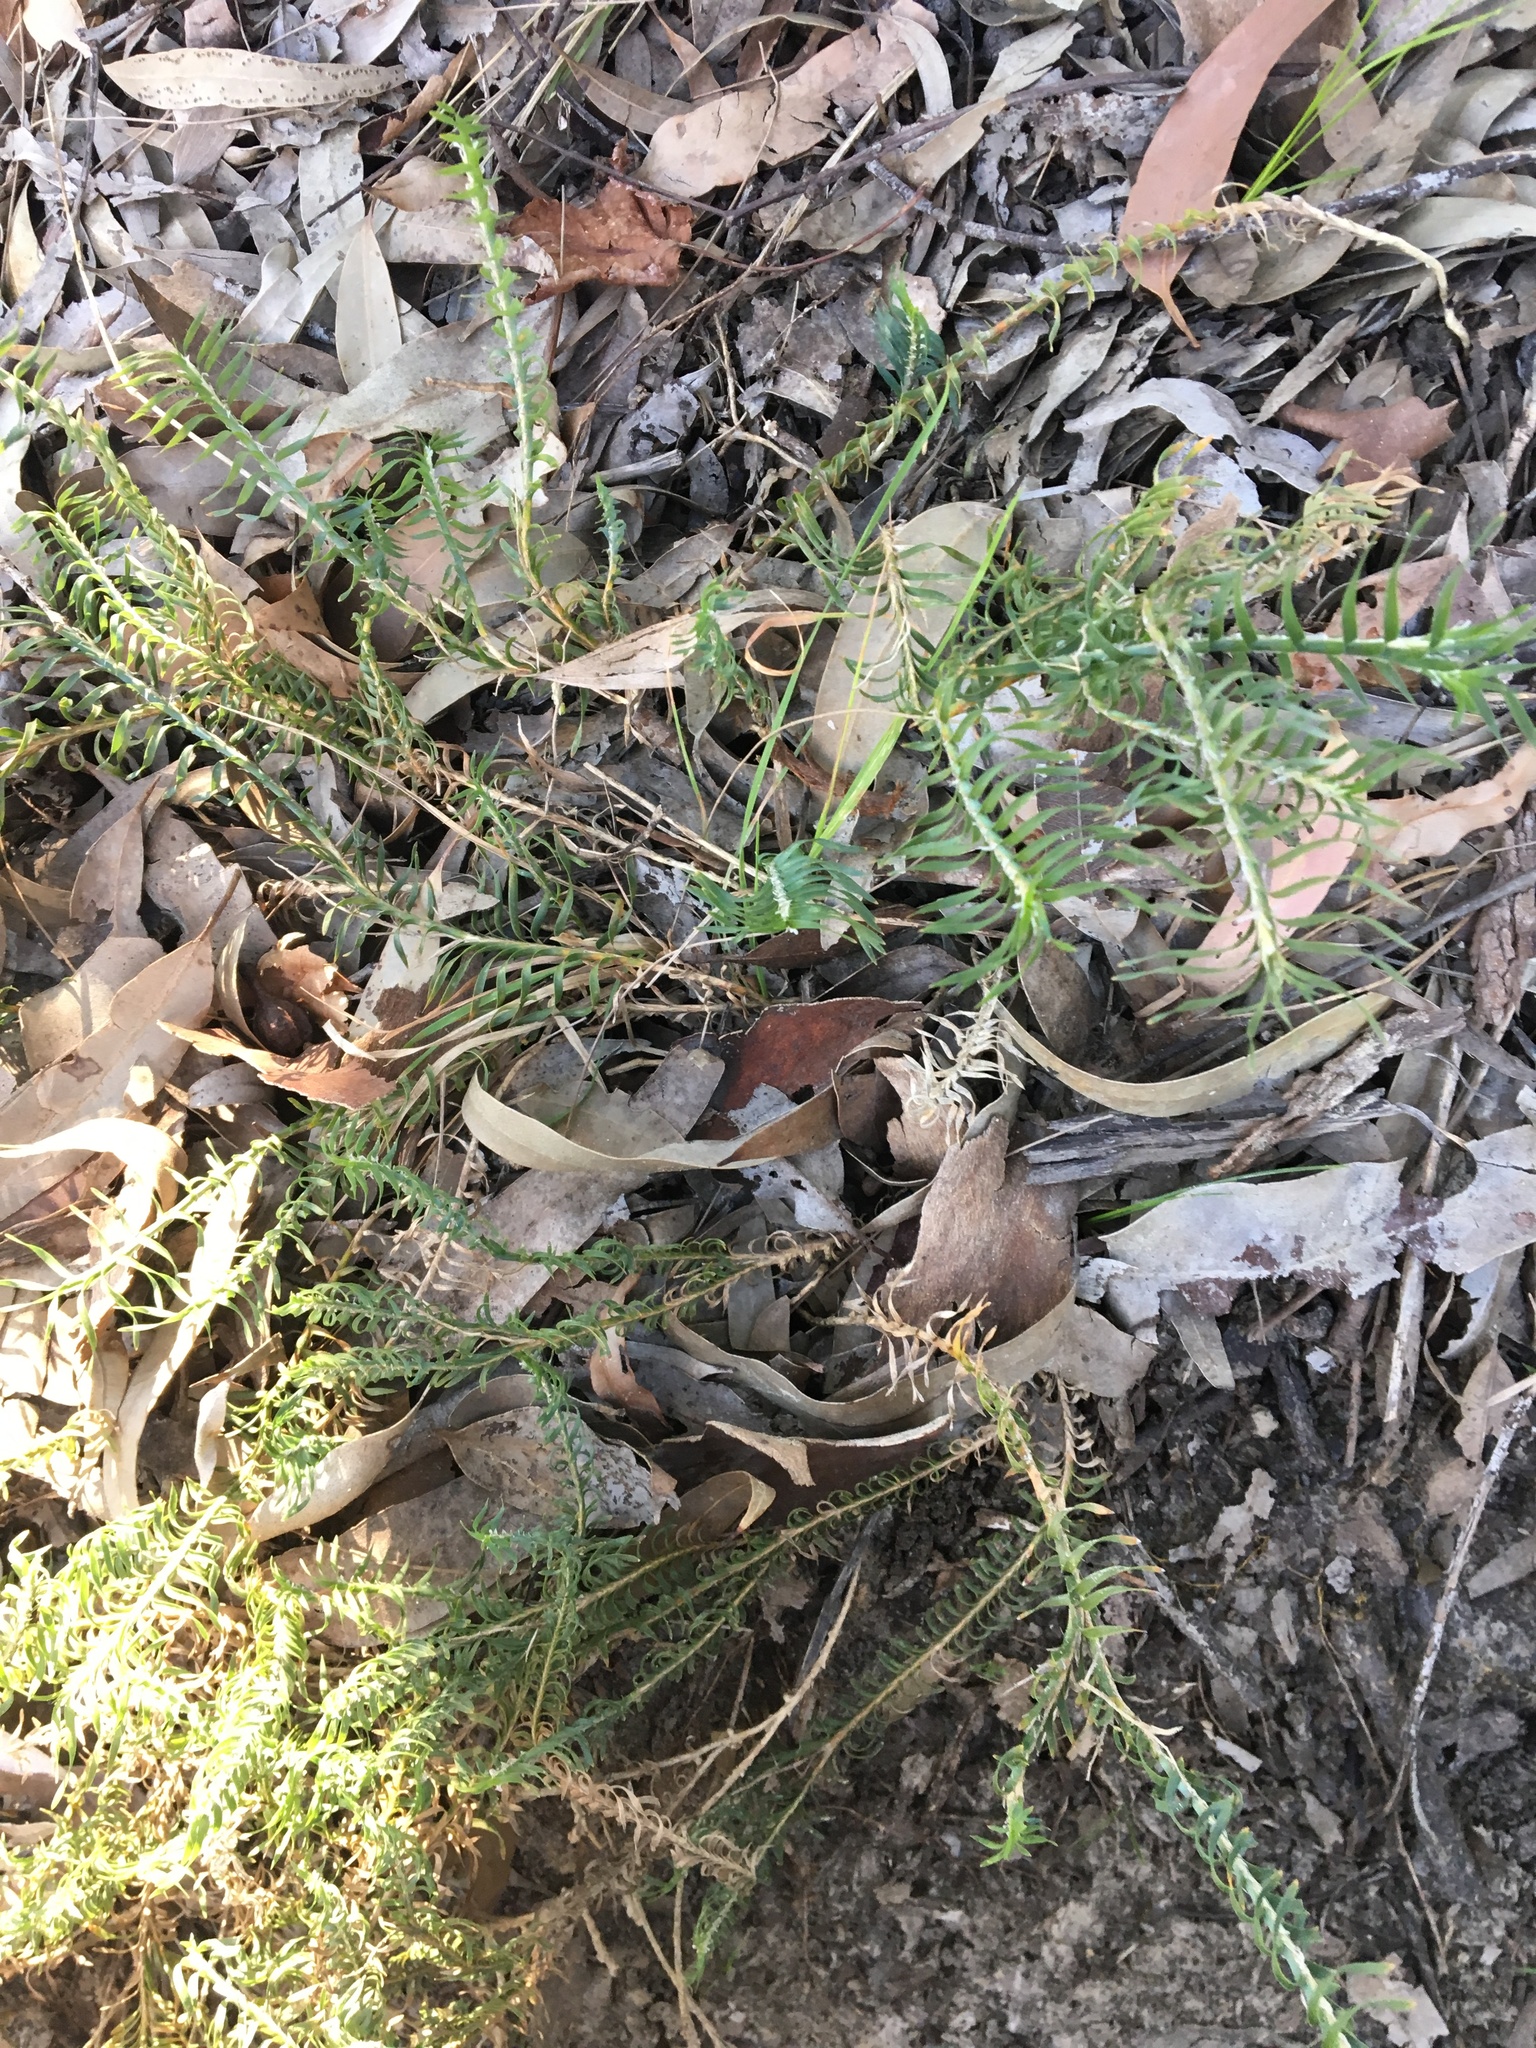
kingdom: Plantae
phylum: Tracheophyta
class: Liliopsida
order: Asparagales
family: Asparagaceae
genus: Lomandra
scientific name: Lomandra obliqua
